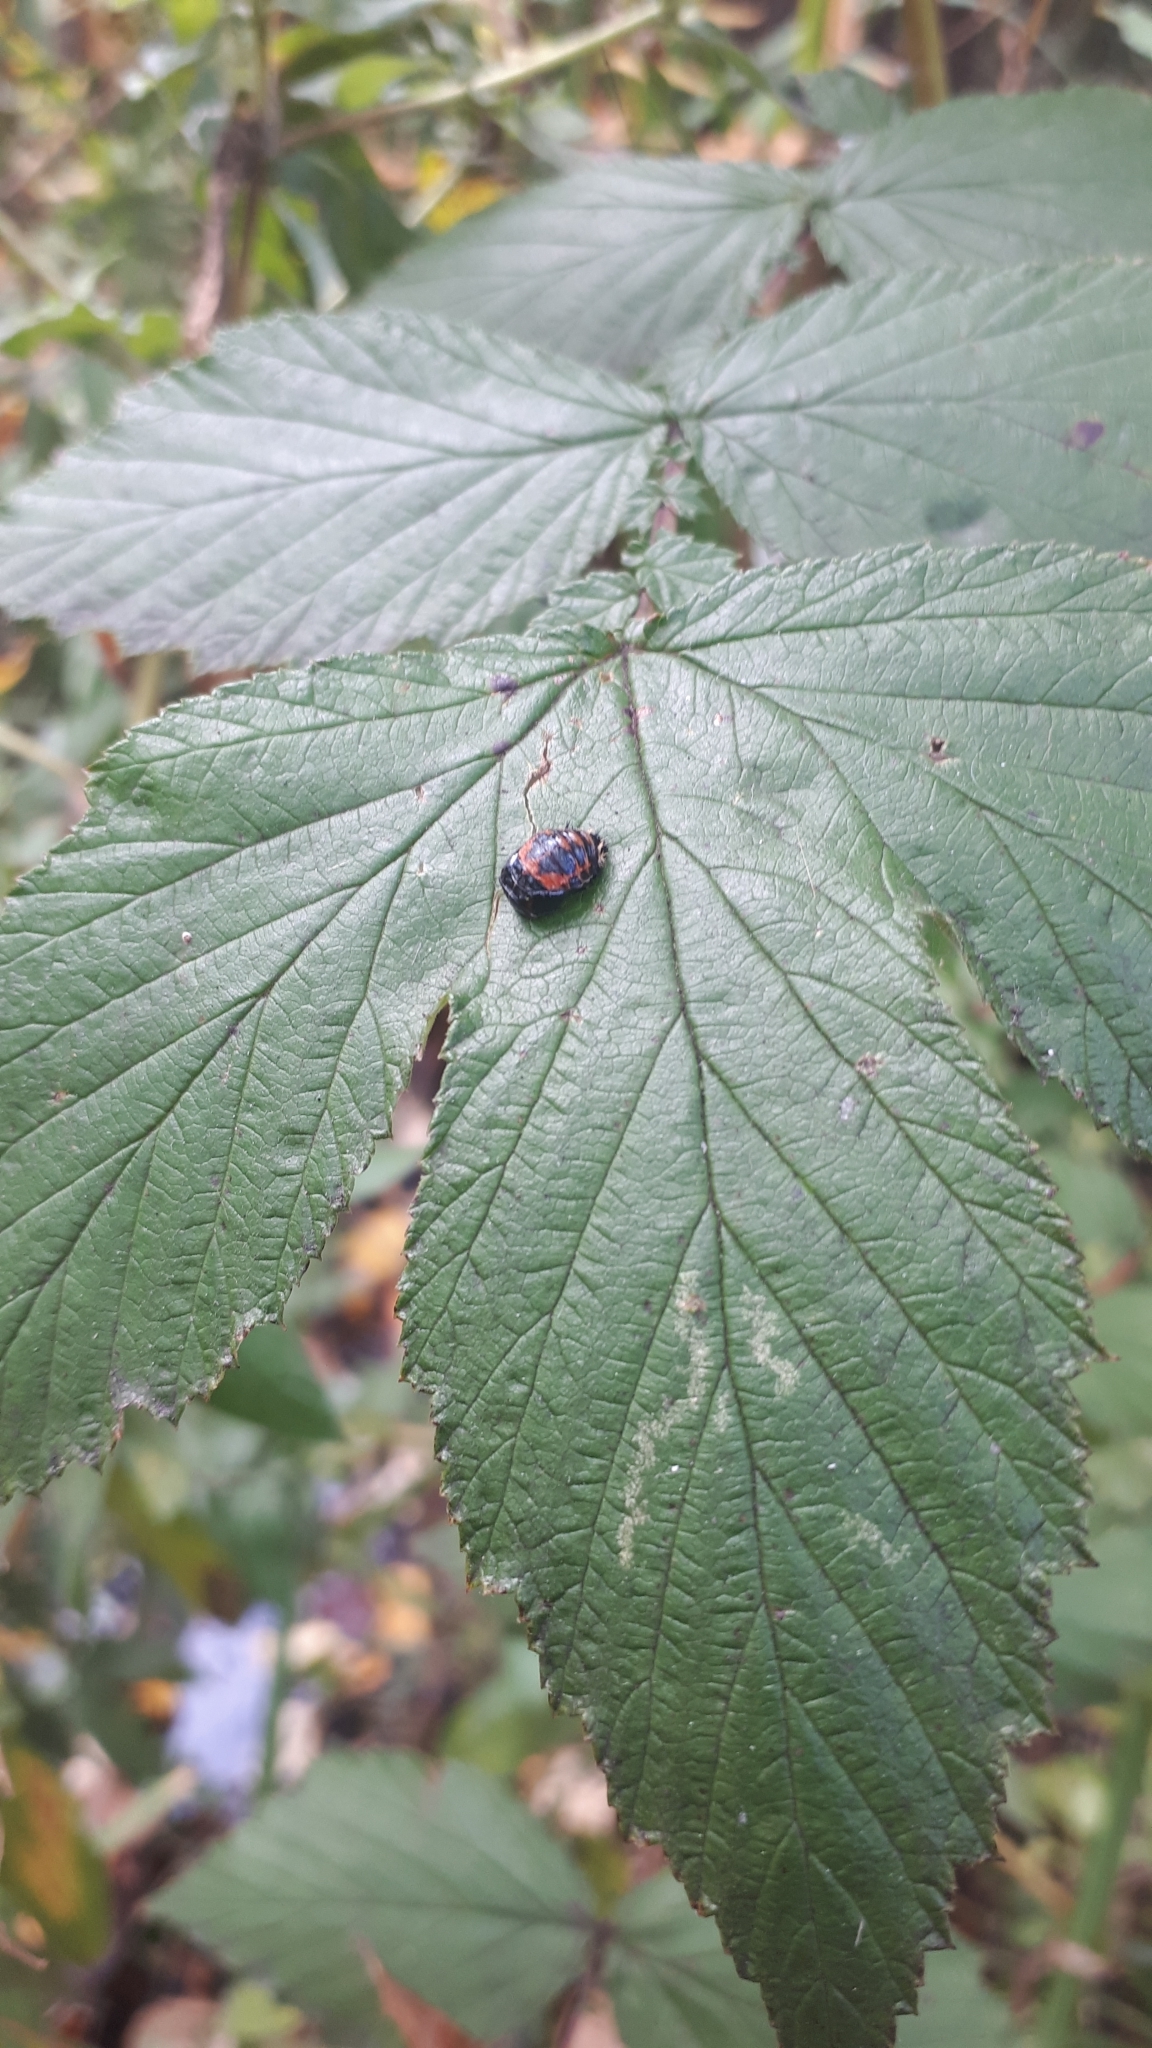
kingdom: Animalia
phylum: Arthropoda
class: Insecta
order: Coleoptera
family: Coccinellidae
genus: Harmonia
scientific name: Harmonia axyridis
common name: Harlequin ladybird
